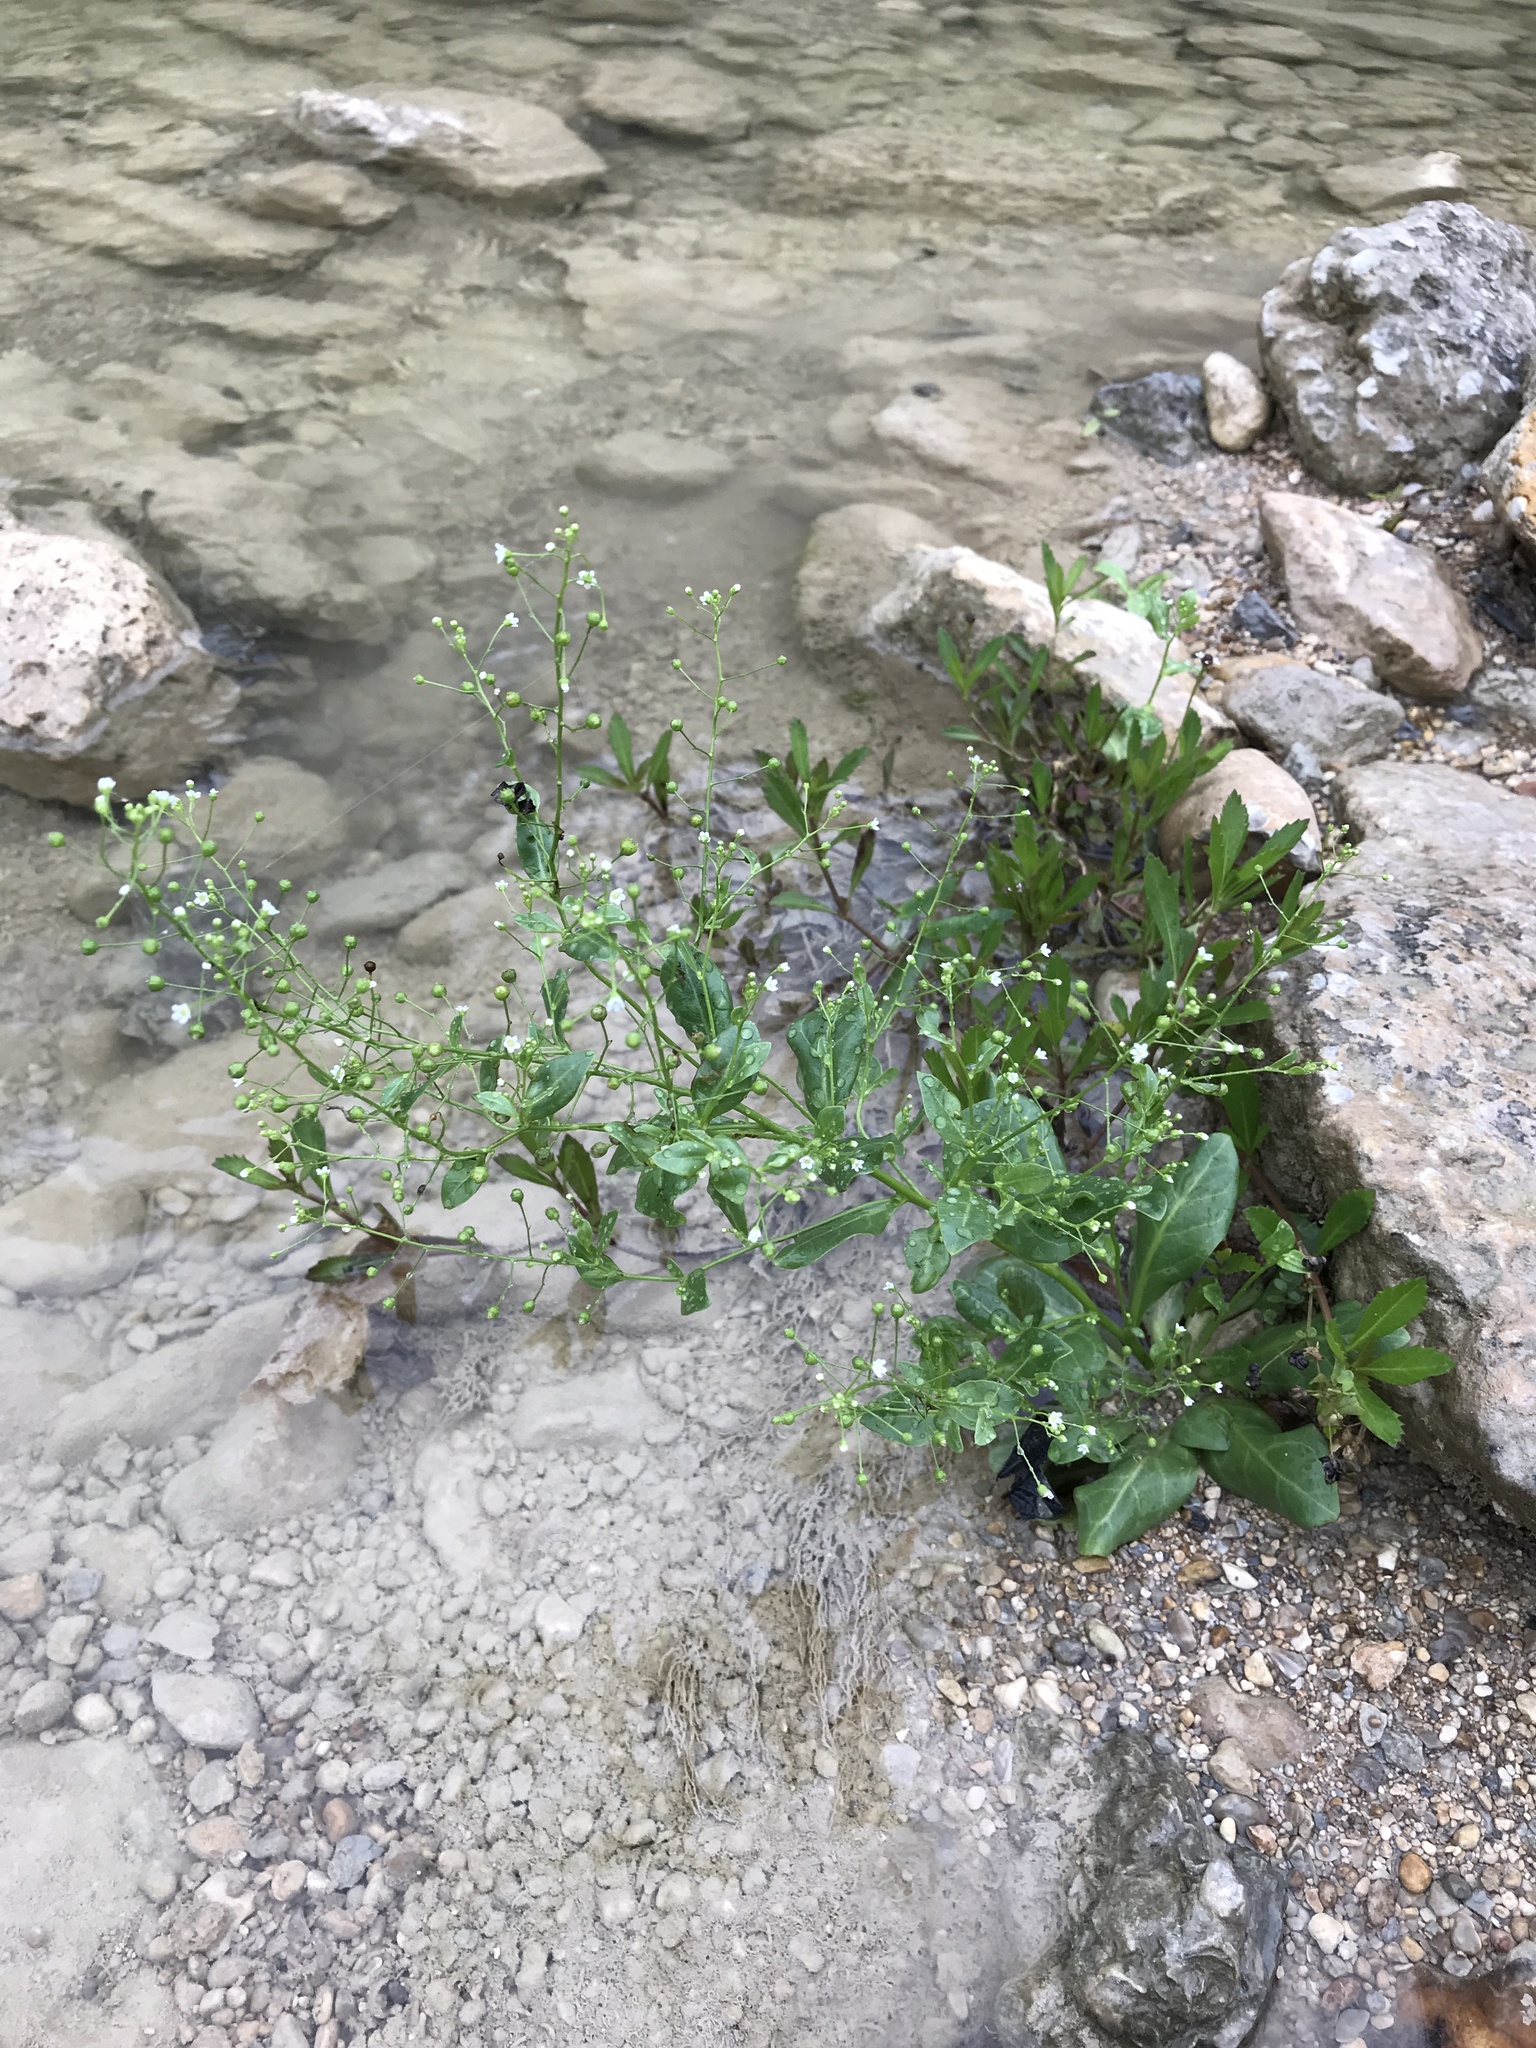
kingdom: Plantae
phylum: Tracheophyta
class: Magnoliopsida
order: Ericales
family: Primulaceae
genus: Samolus
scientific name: Samolus parviflorus
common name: False water pimpernel
